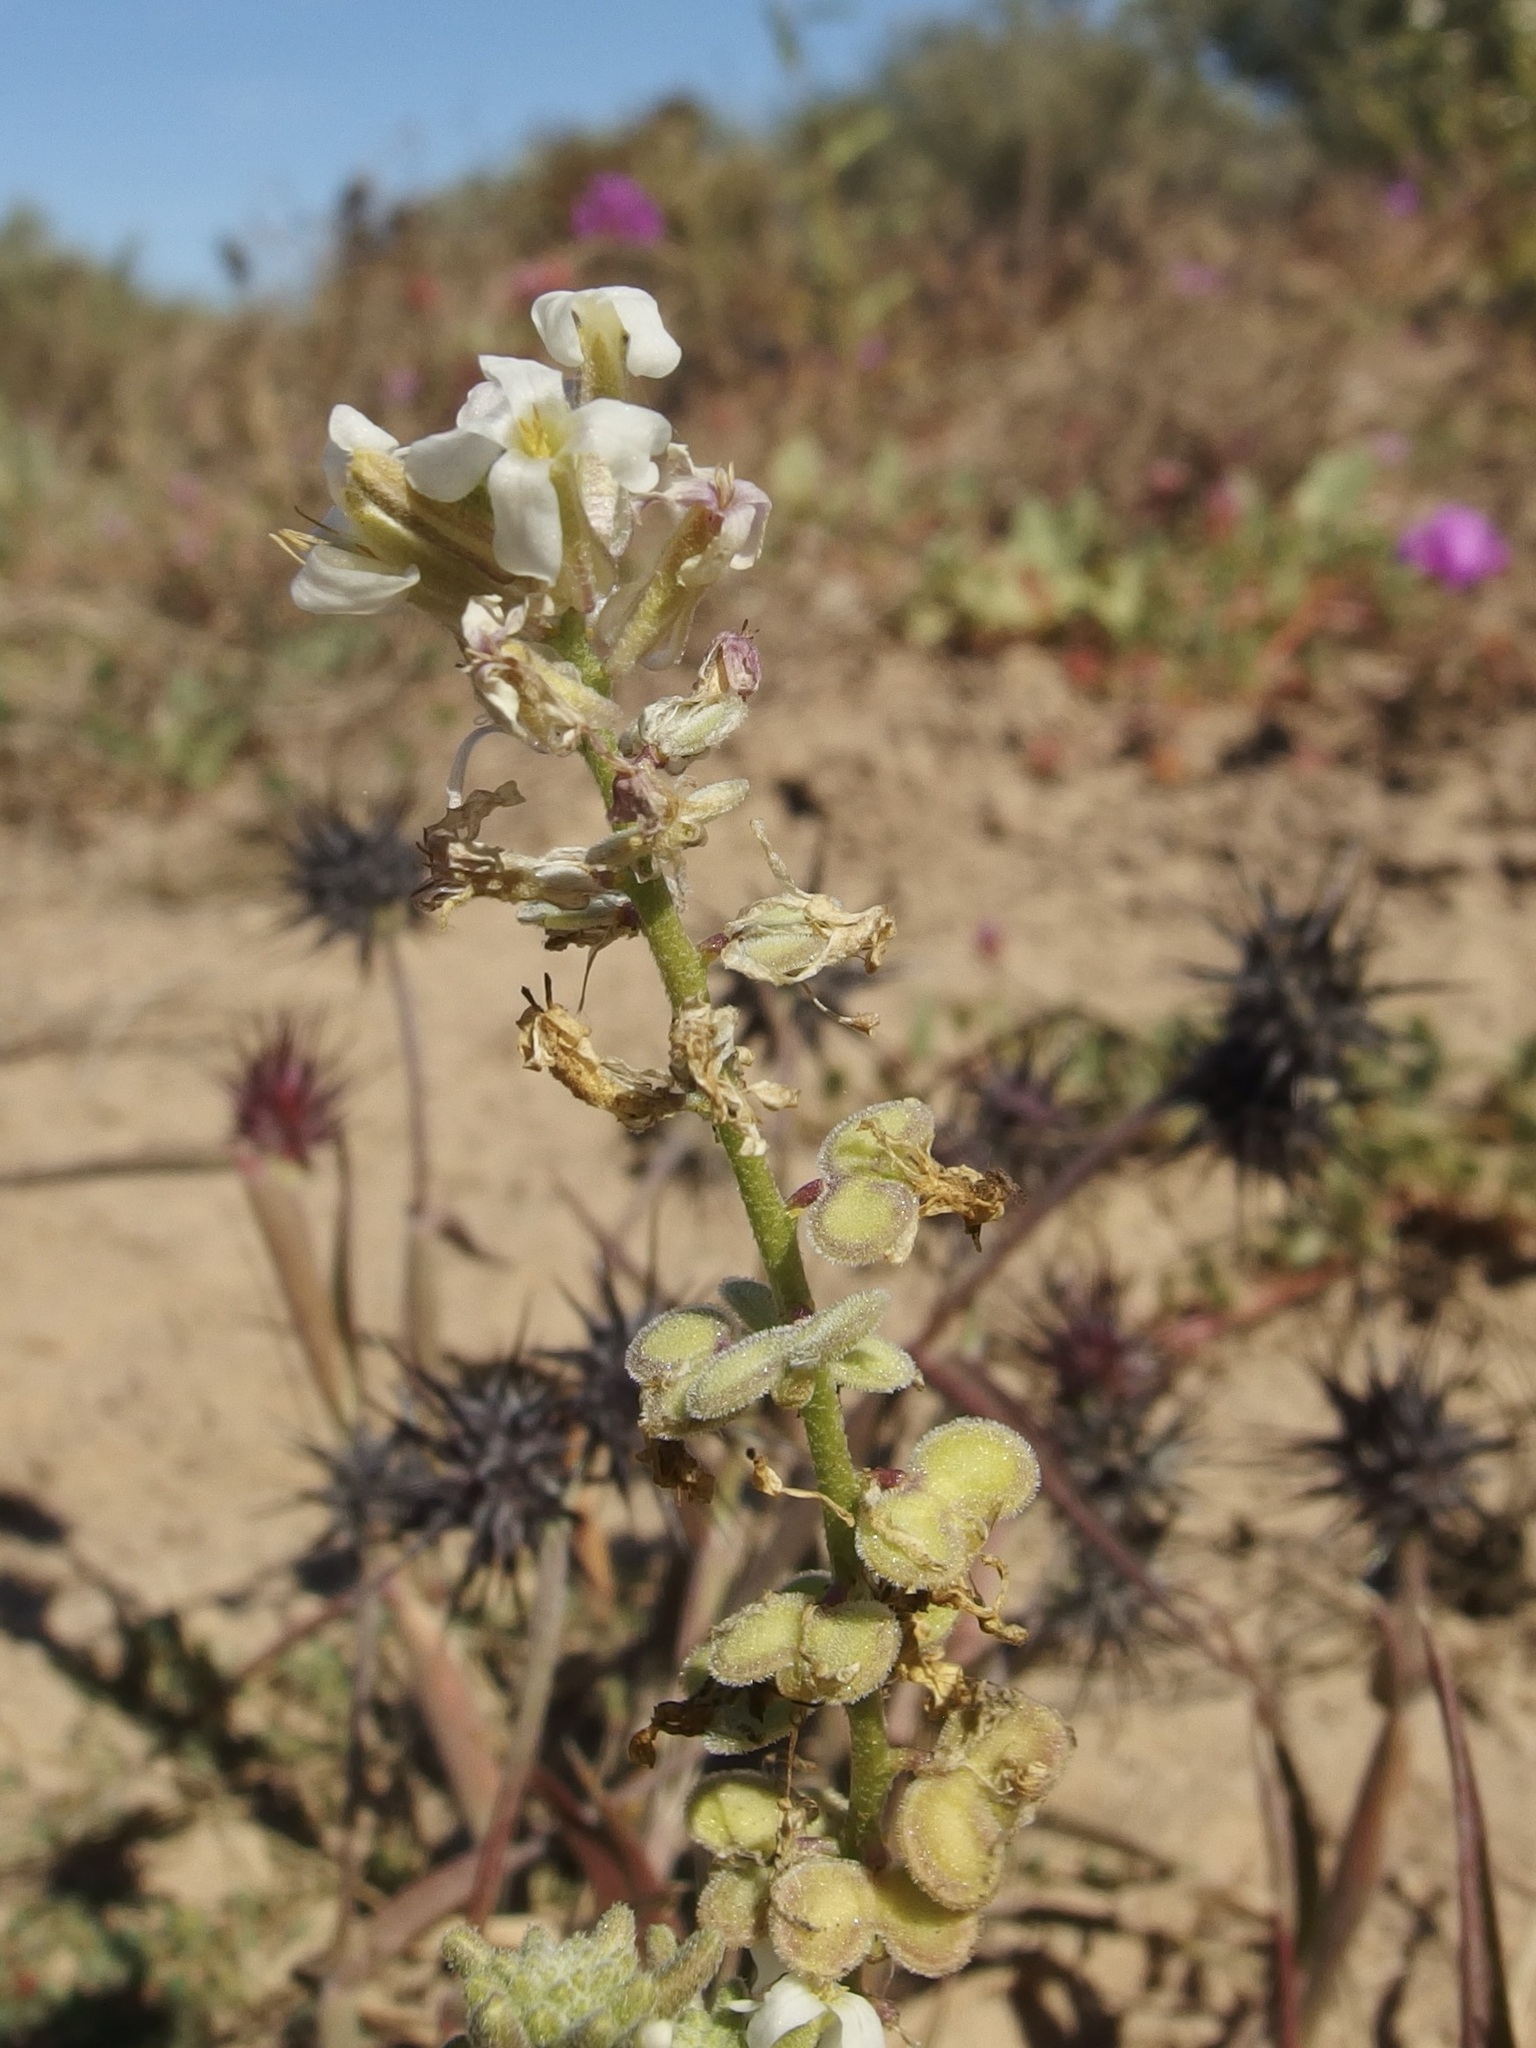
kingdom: Plantae
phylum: Tracheophyta
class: Magnoliopsida
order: Brassicales
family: Brassicaceae
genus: Dithyrea
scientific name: Dithyrea californica
